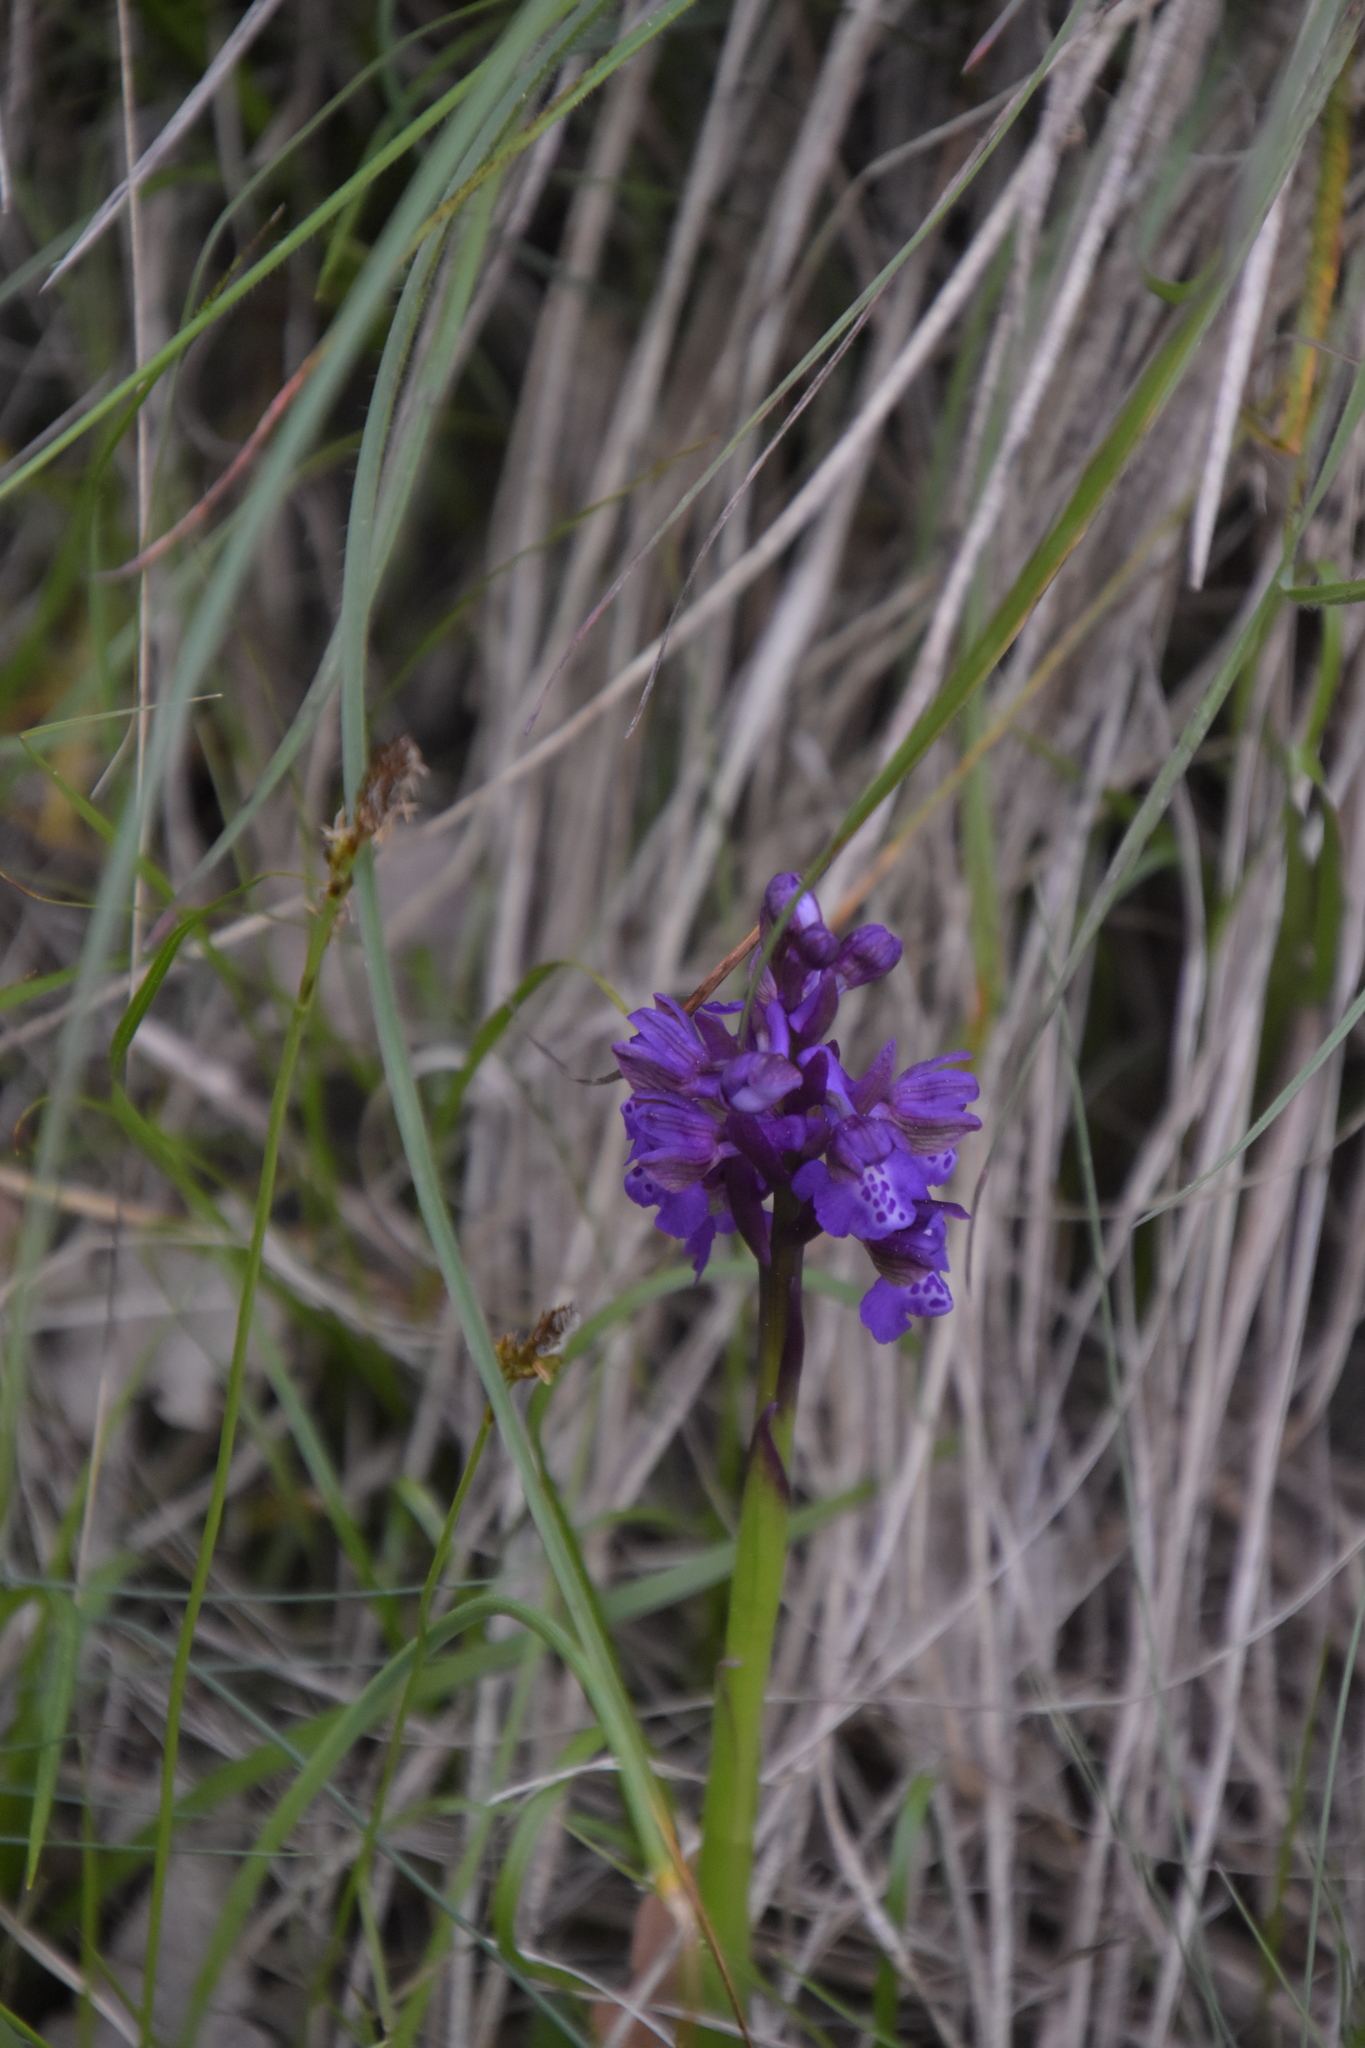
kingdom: Plantae
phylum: Tracheophyta
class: Liliopsida
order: Asparagales
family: Orchidaceae
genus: Anacamptis
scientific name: Anacamptis morio
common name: Green-winged orchid
